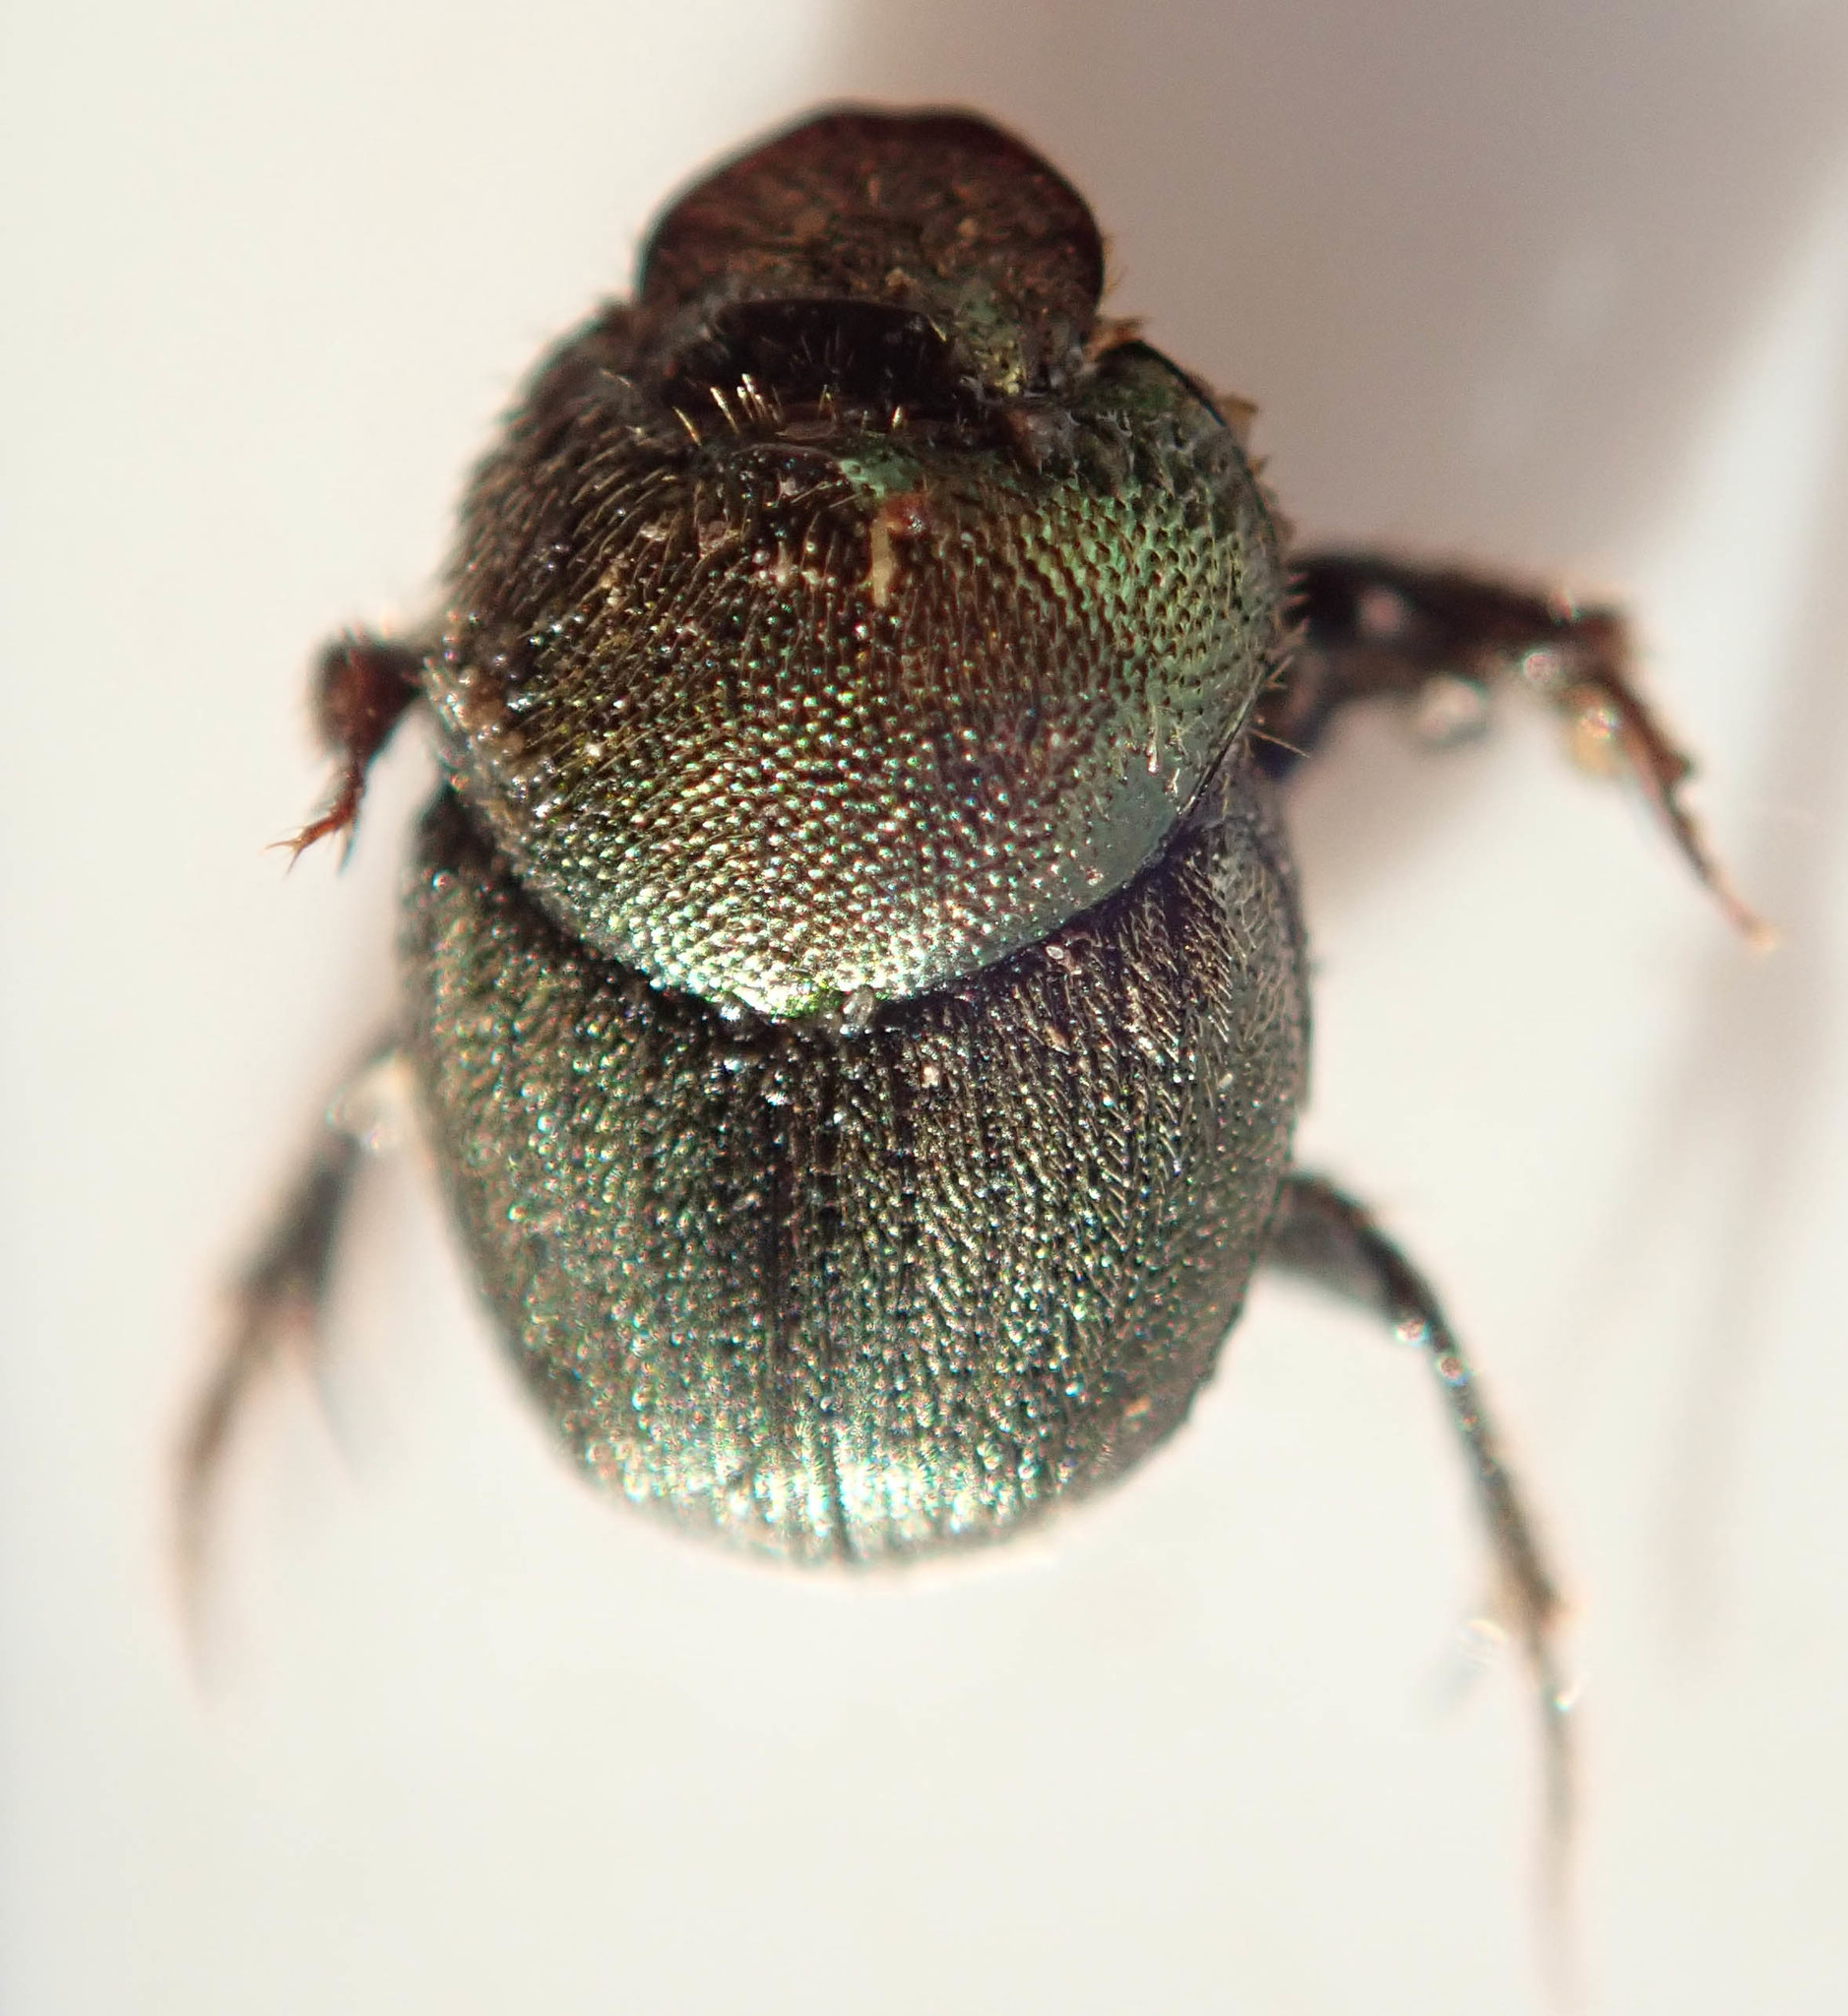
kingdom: Animalia
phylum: Arthropoda
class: Insecta
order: Coleoptera
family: Scarabaeidae
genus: Onthophagus
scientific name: Onthophagus aeruginosus
